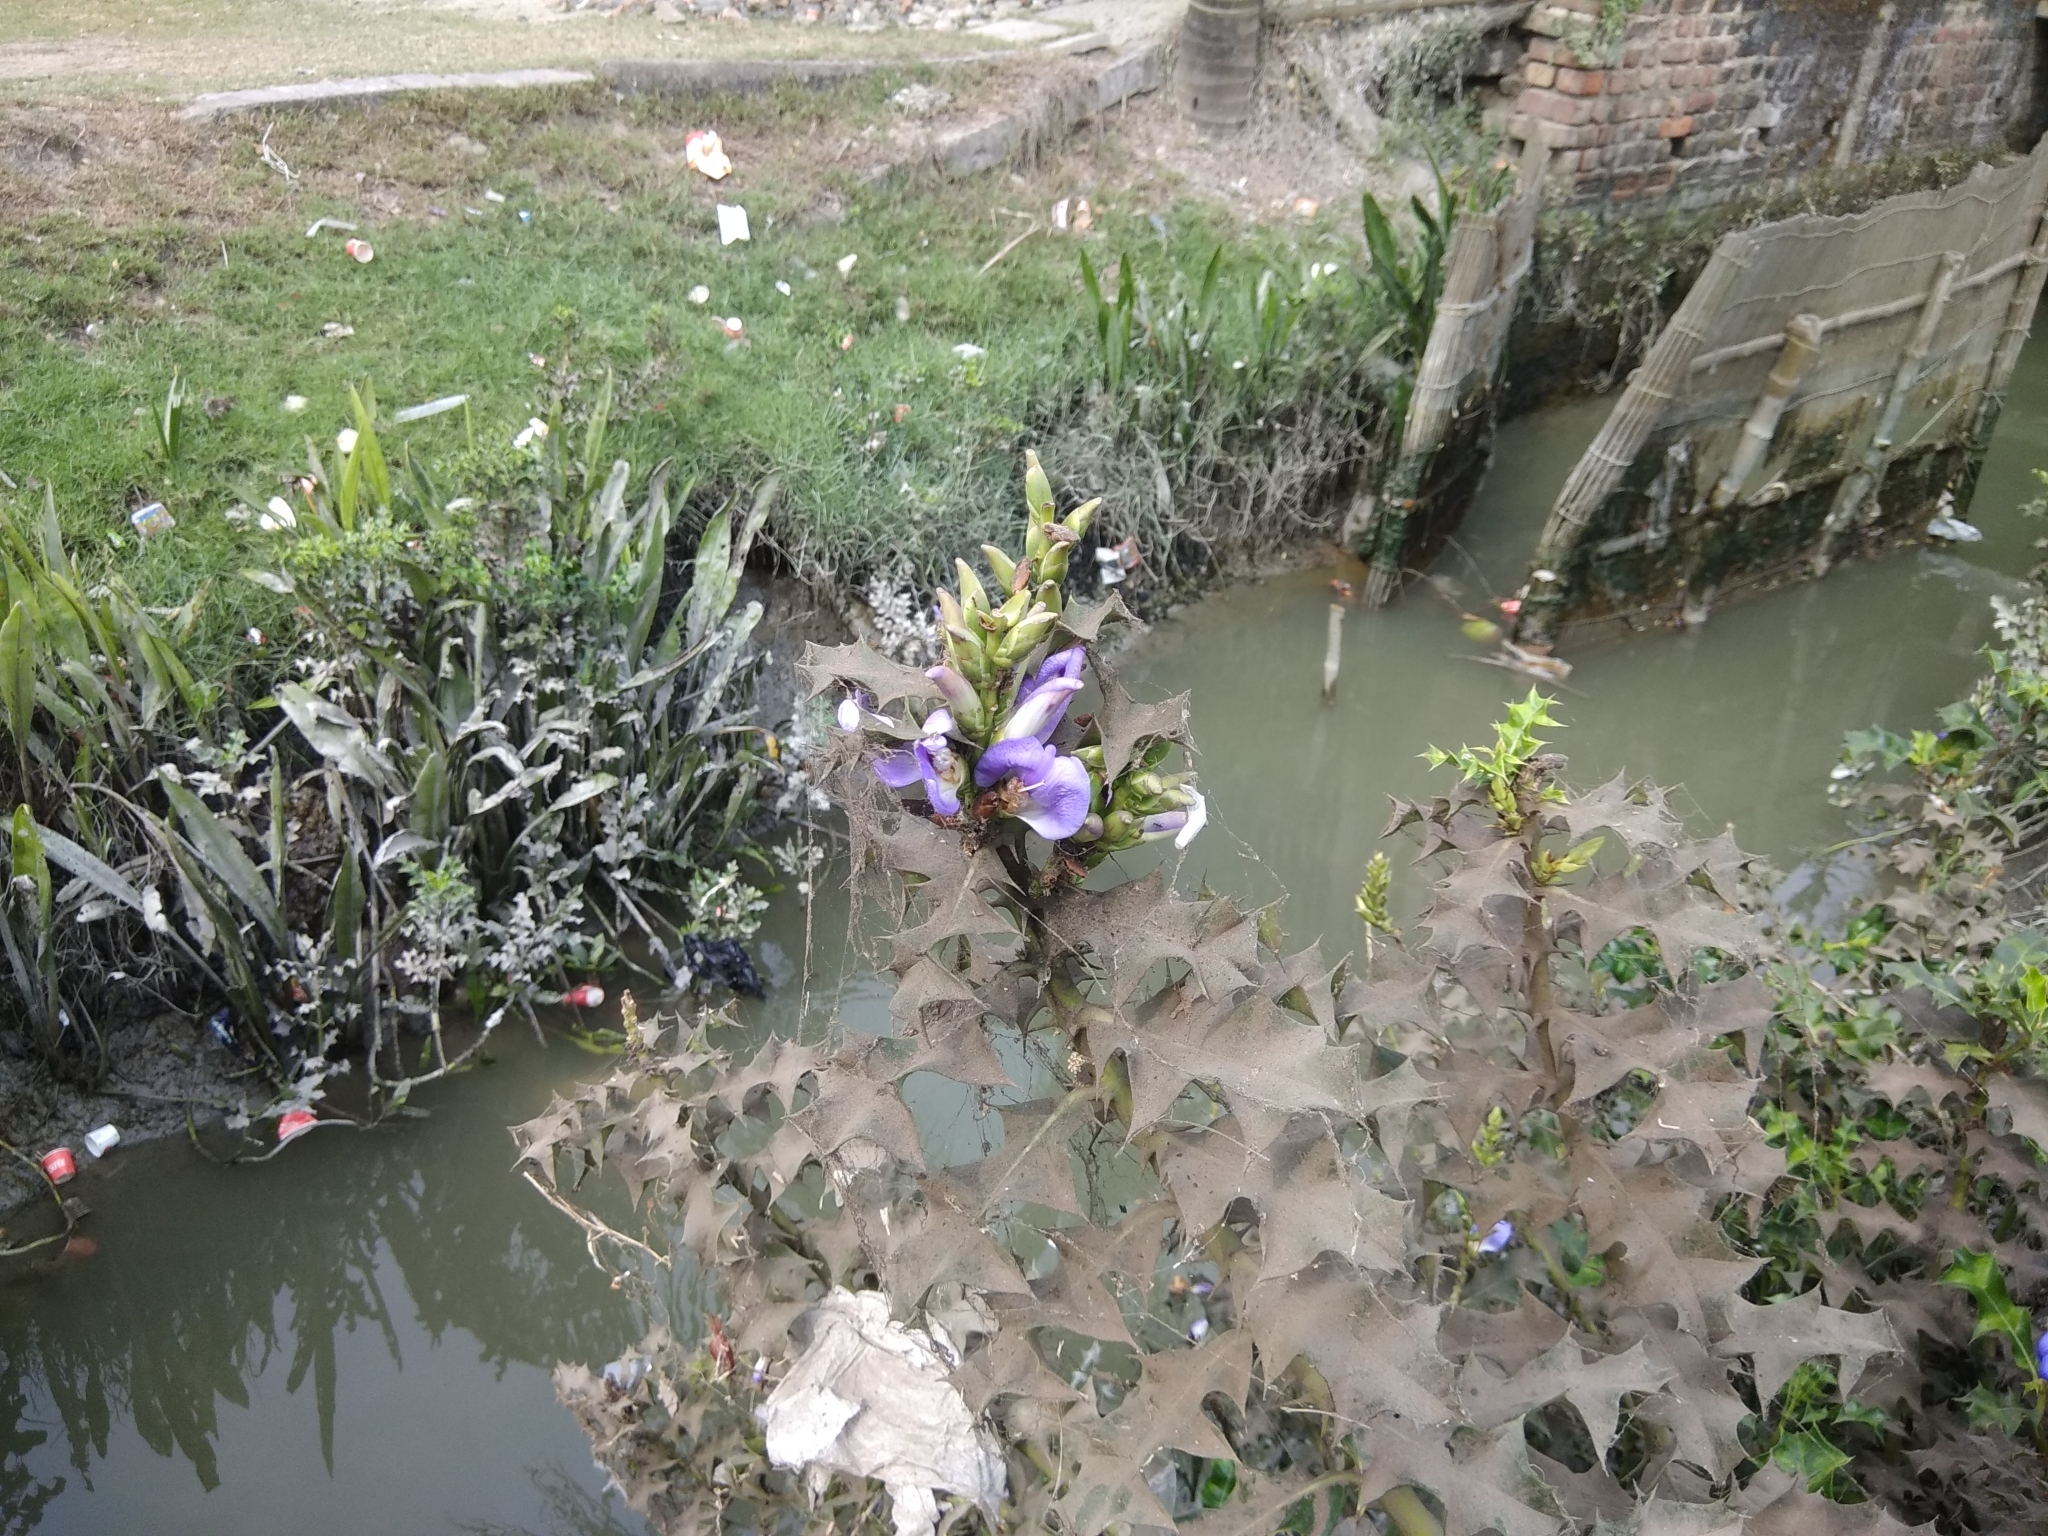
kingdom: Plantae
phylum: Tracheophyta
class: Magnoliopsida
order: Lamiales
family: Acanthaceae
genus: Acanthus
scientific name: Acanthus ilicifolius
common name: Holy mangrove
